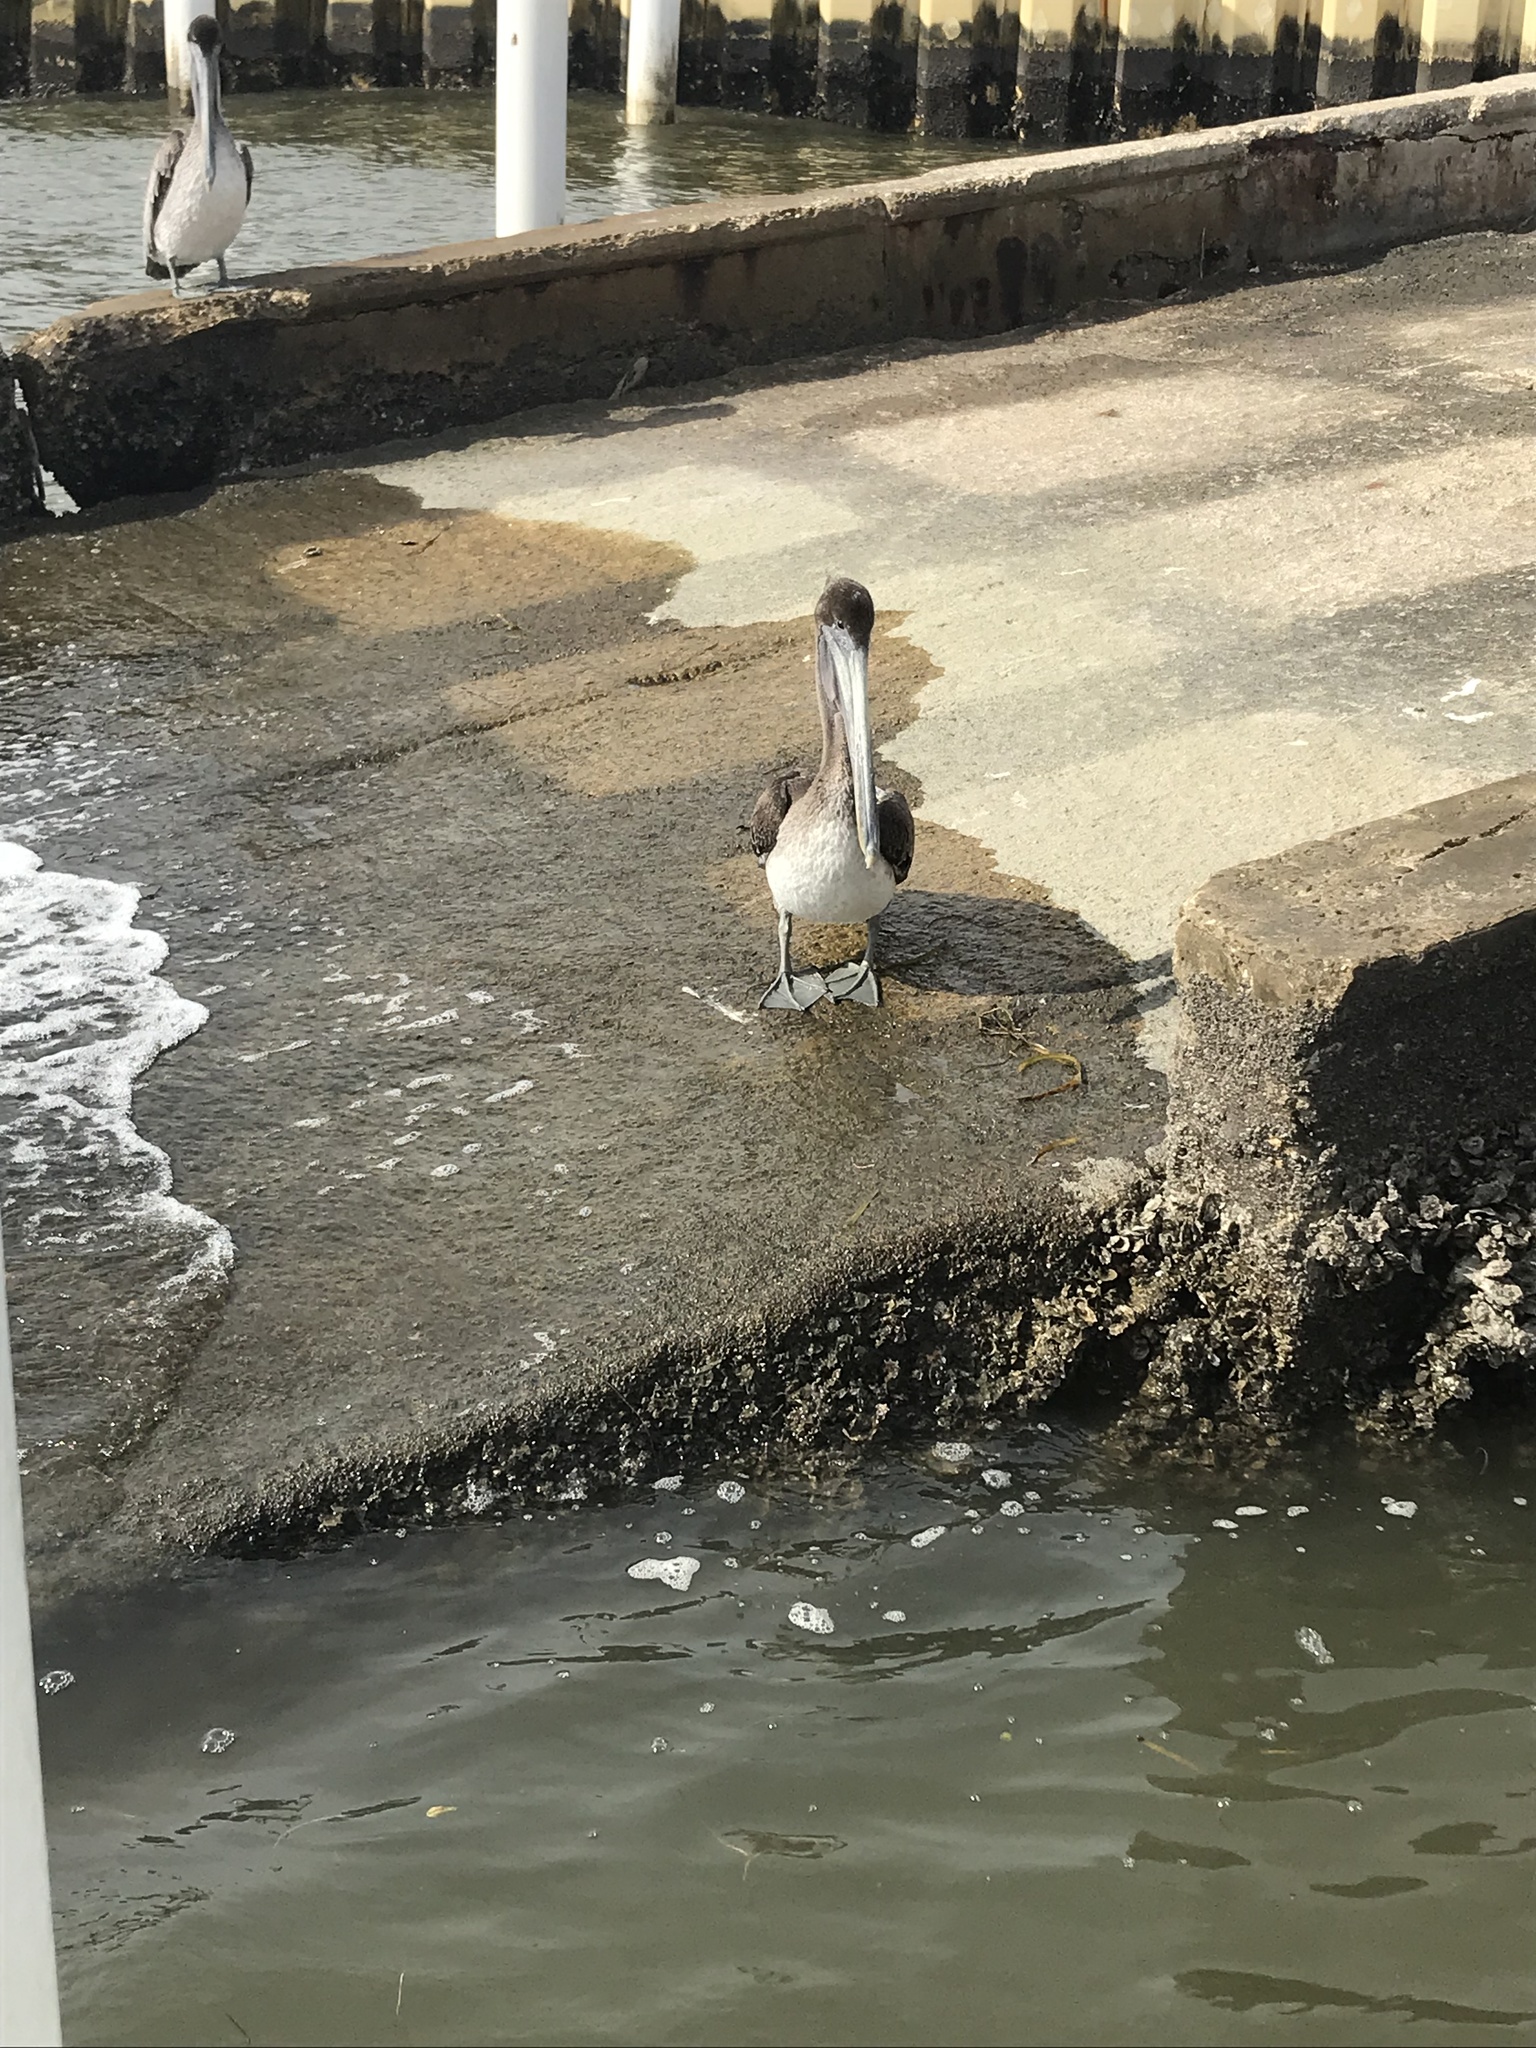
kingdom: Animalia
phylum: Chordata
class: Aves
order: Pelecaniformes
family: Pelecanidae
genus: Pelecanus
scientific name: Pelecanus occidentalis
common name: Brown pelican
